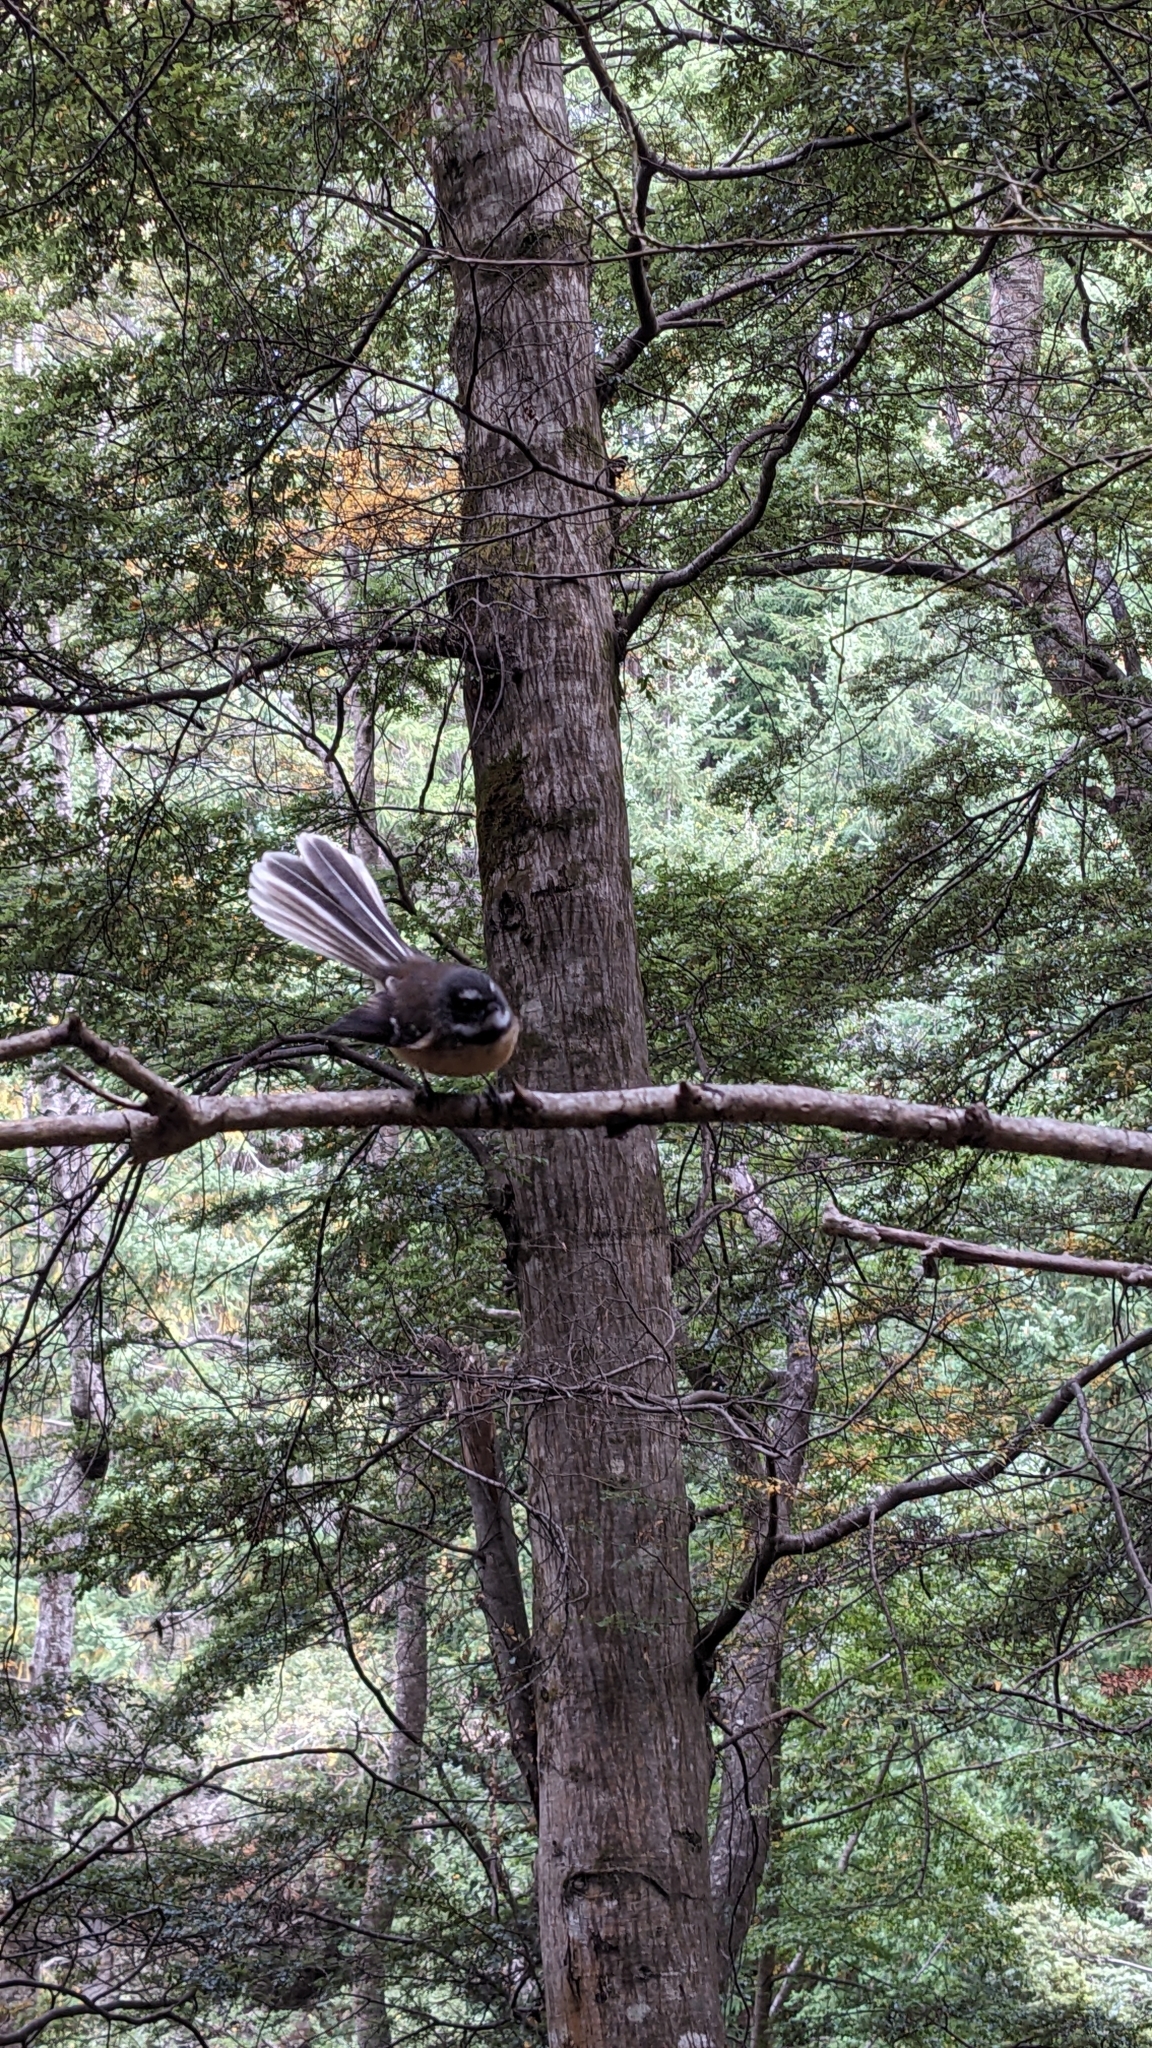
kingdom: Animalia
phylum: Chordata
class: Aves
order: Passeriformes
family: Rhipiduridae
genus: Rhipidura
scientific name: Rhipidura fuliginosa
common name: New zealand fantail
